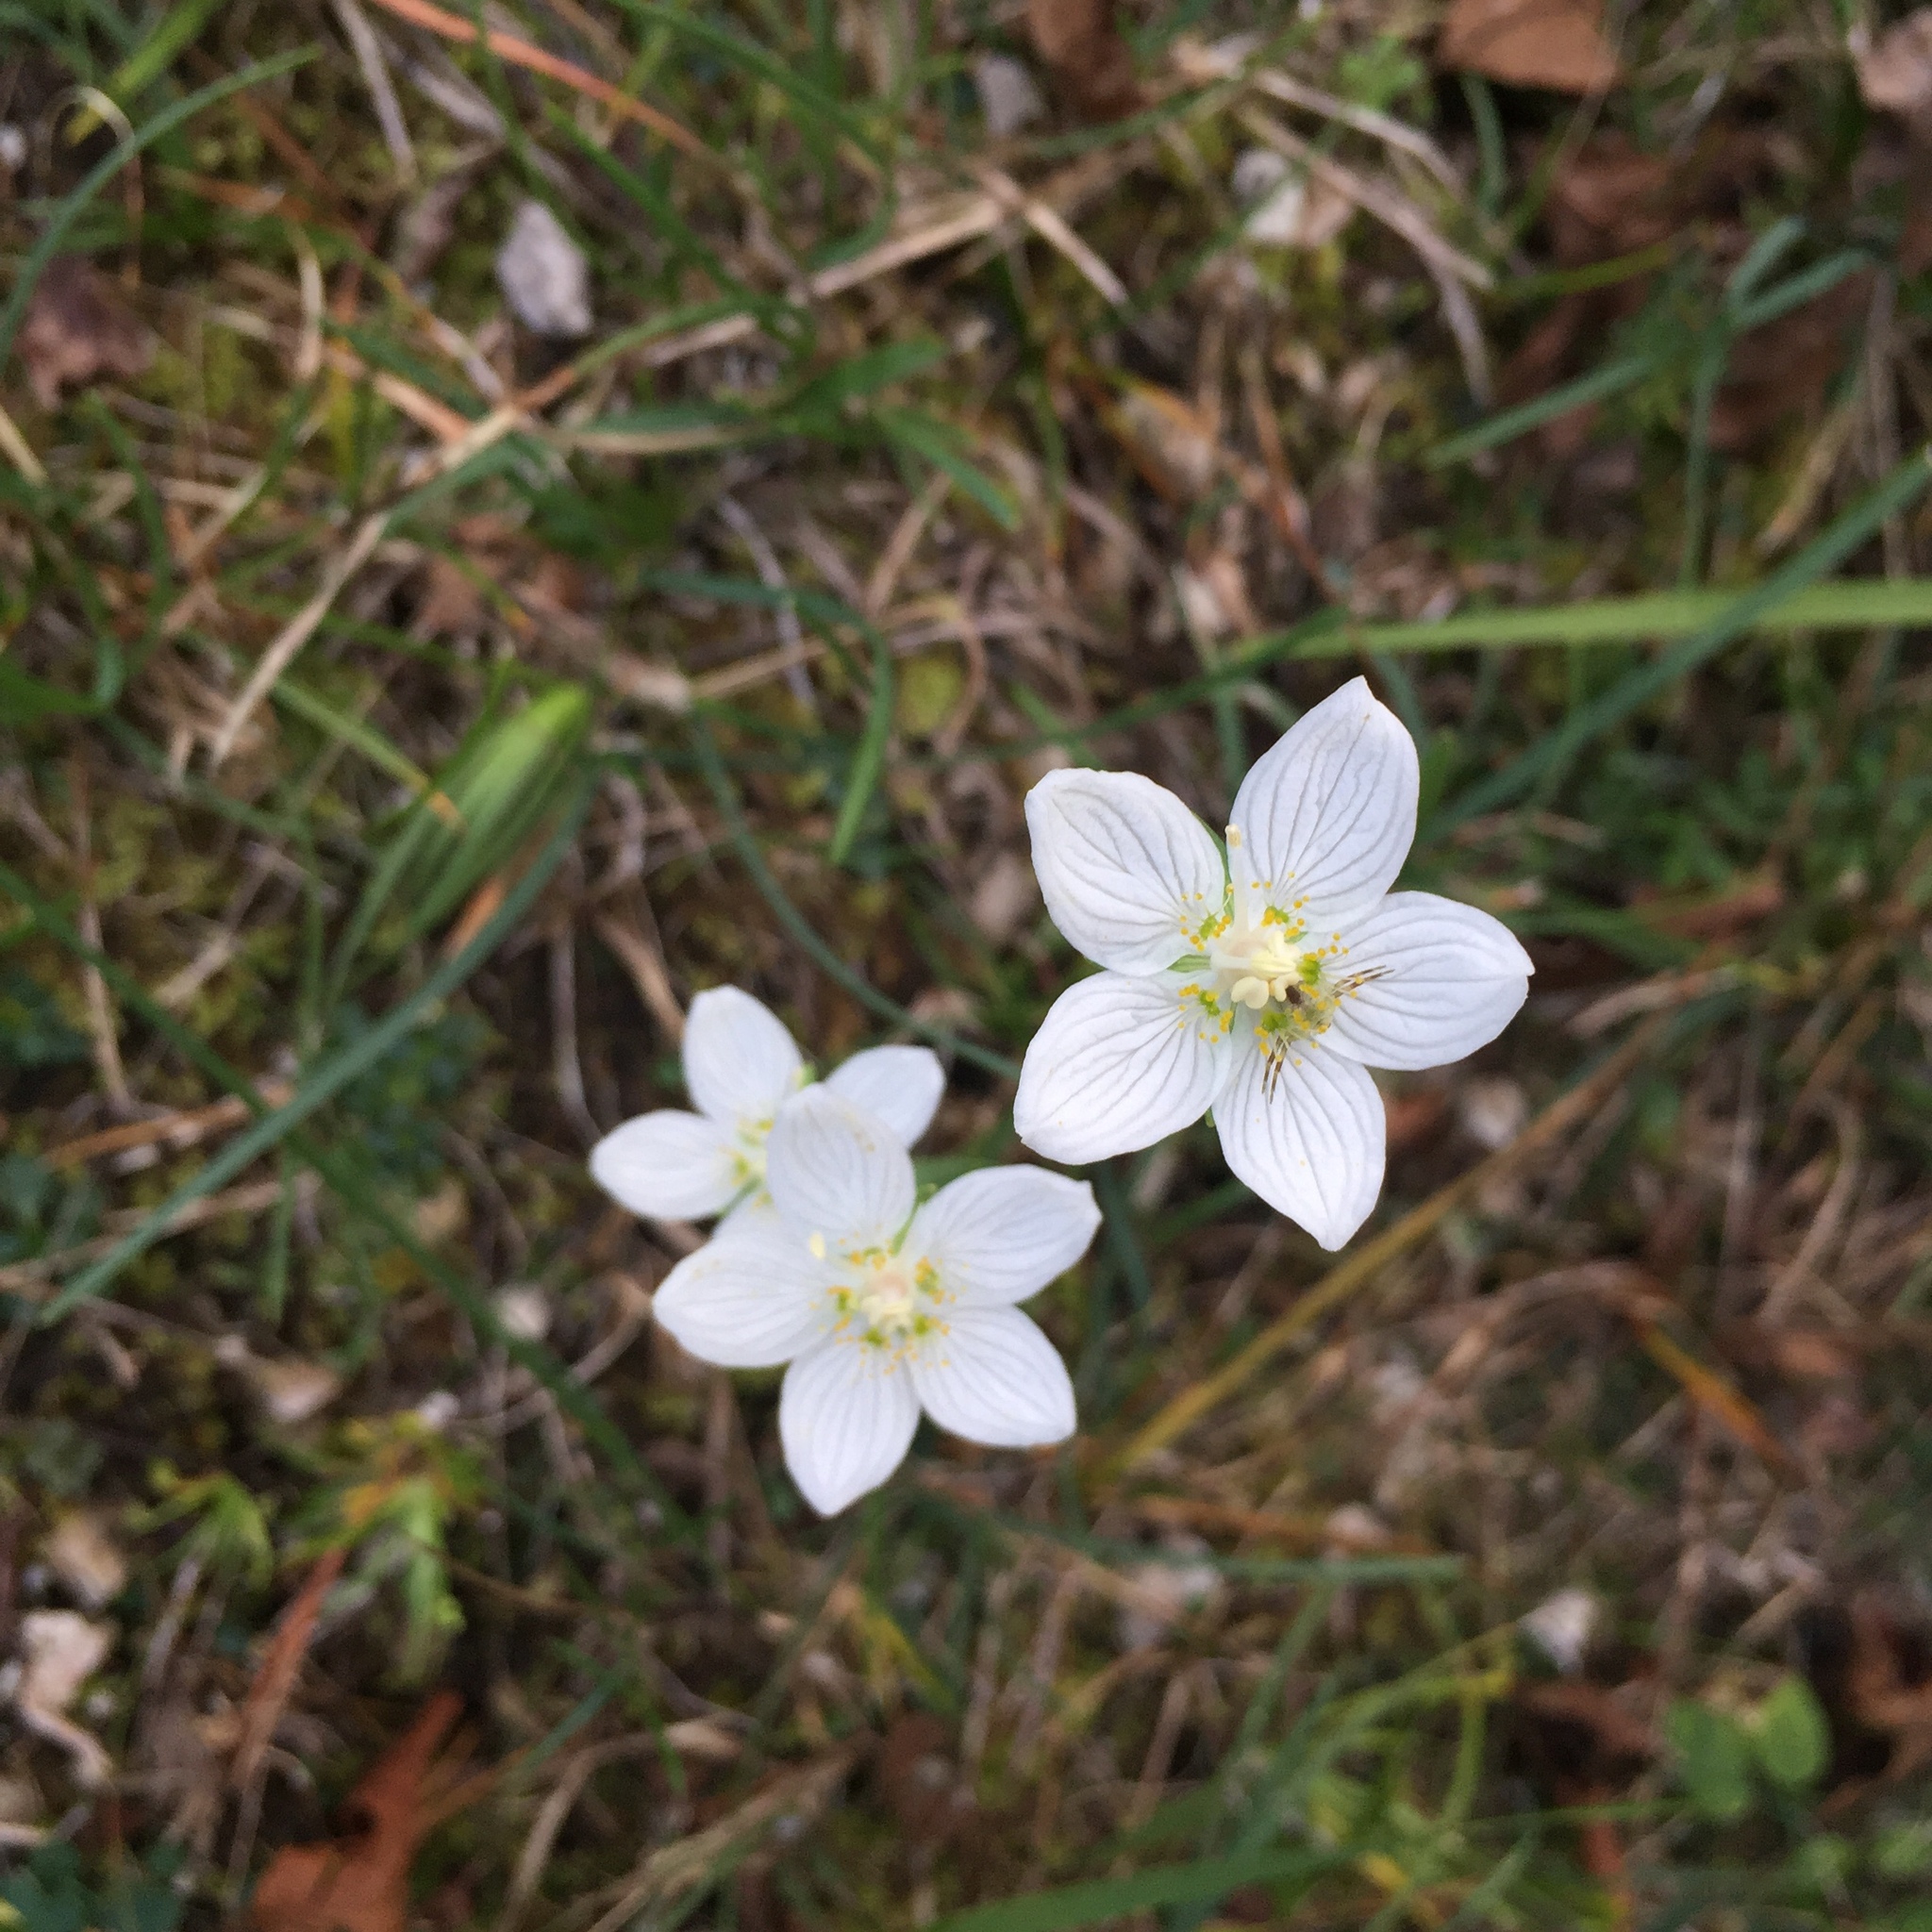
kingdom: Plantae
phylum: Tracheophyta
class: Magnoliopsida
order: Celastrales
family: Parnassiaceae
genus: Parnassia
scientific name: Parnassia palustris
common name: Grass-of-parnassus
